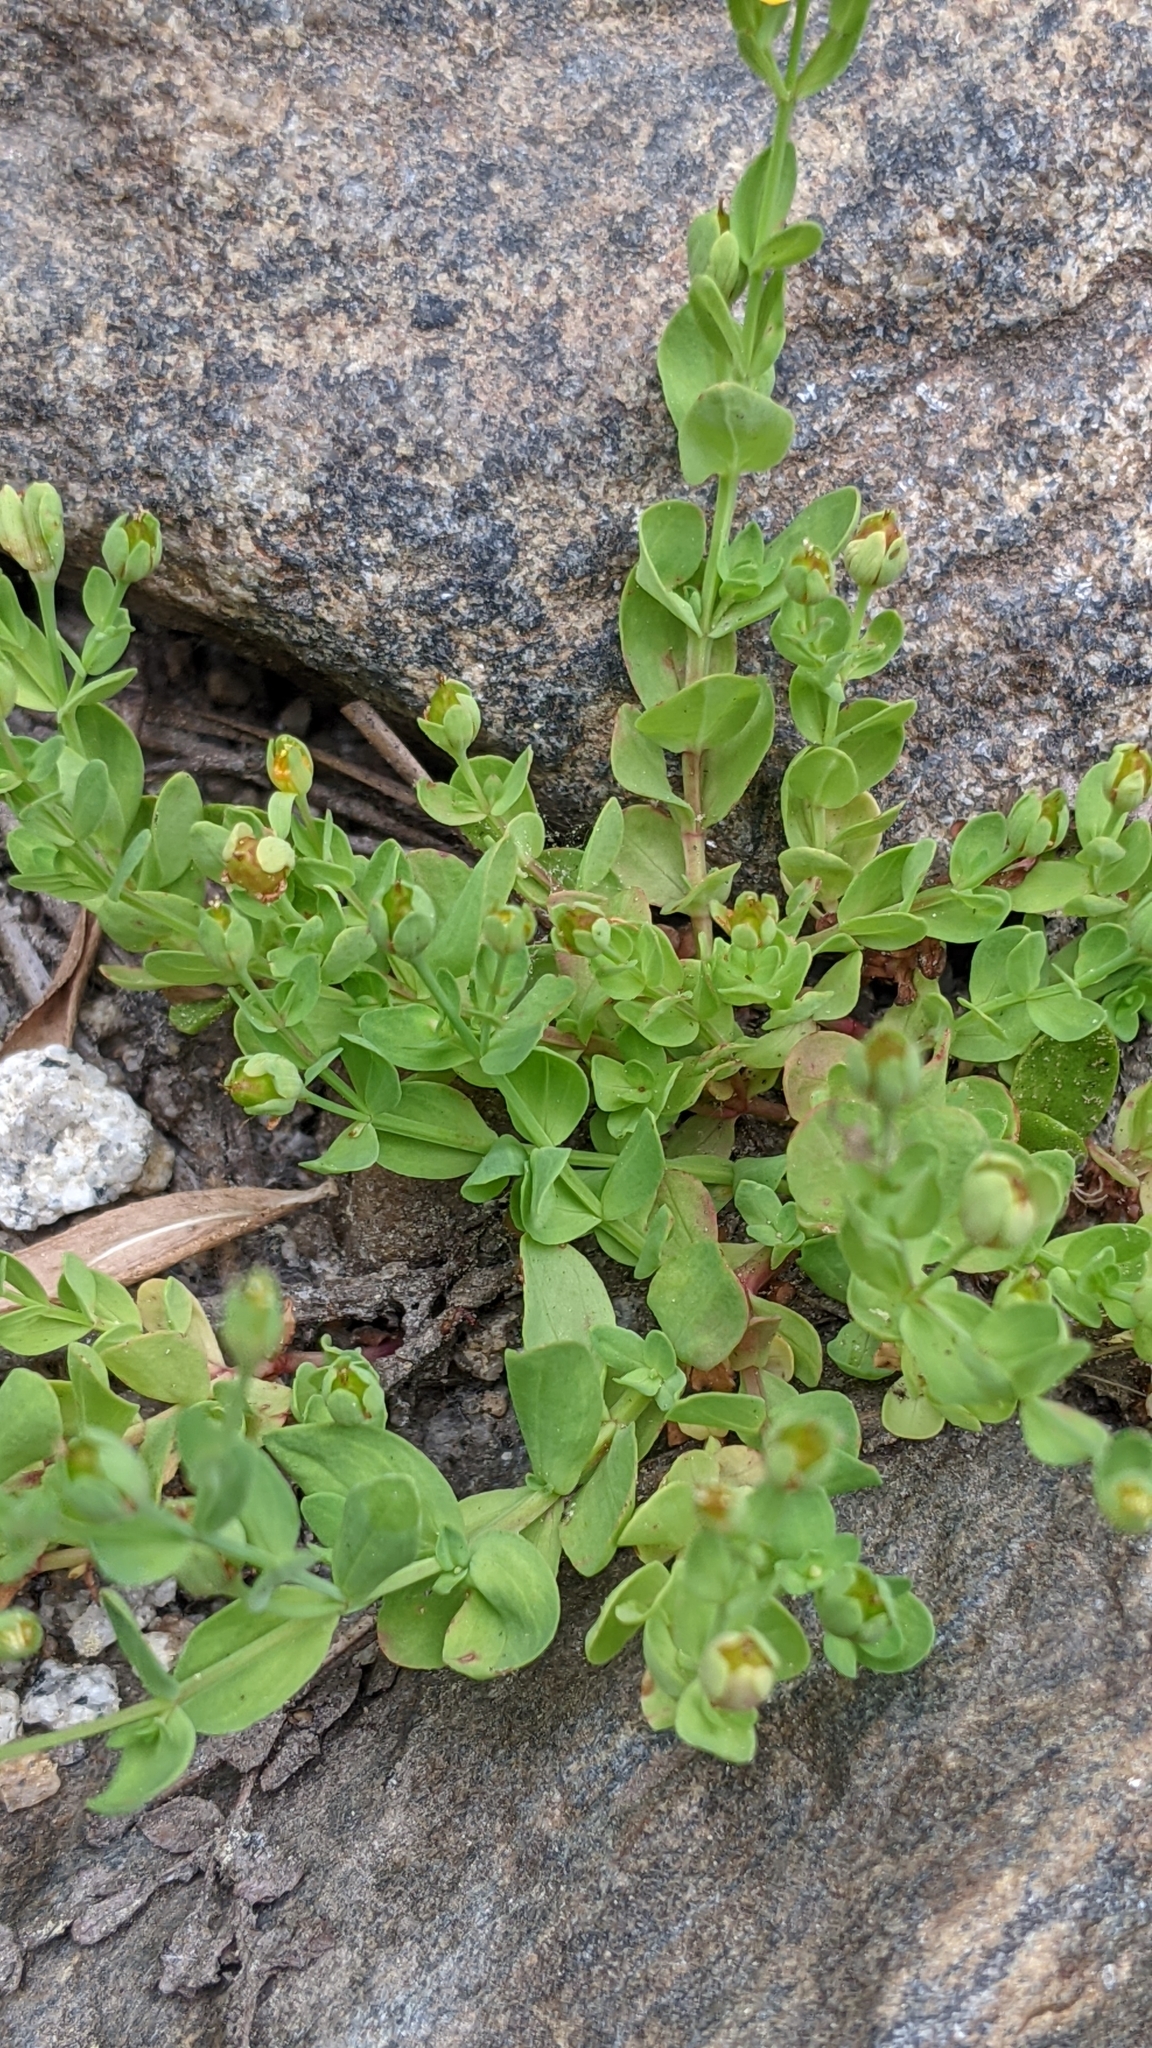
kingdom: Plantae
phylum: Tracheophyta
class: Magnoliopsida
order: Malpighiales
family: Hypericaceae
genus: Hypericum
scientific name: Hypericum anagalloides
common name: Bog st. john's-wort
